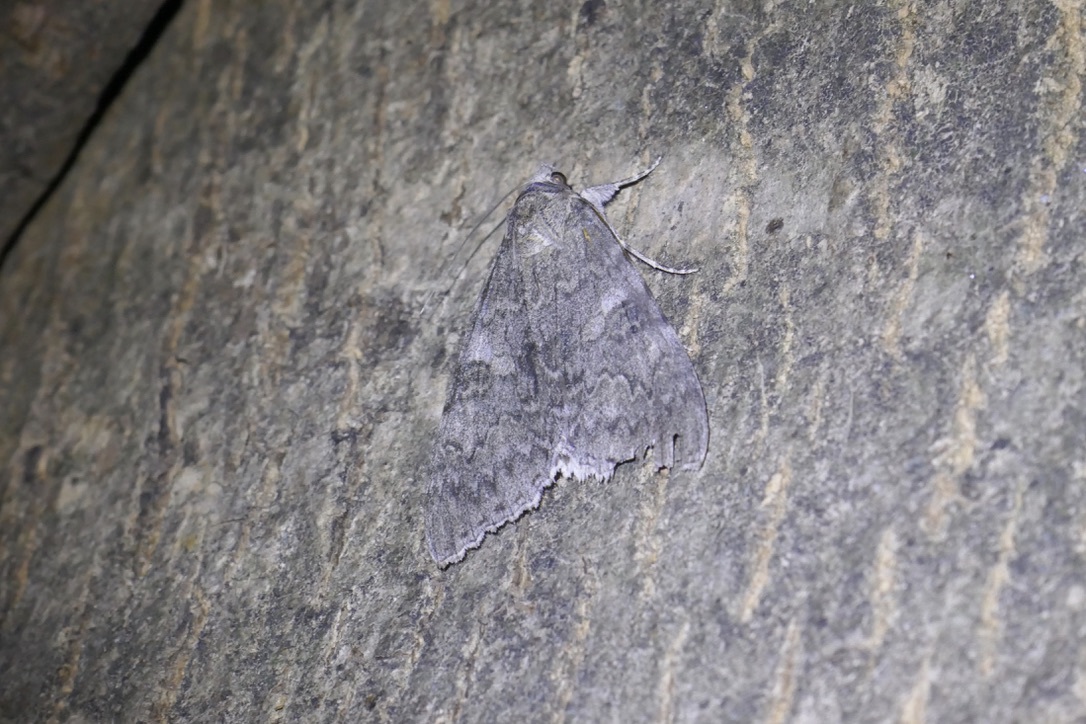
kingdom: Animalia
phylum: Arthropoda
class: Insecta
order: Lepidoptera
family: Erebidae
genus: Catocala
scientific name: Catocala nupta
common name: Red underwing
